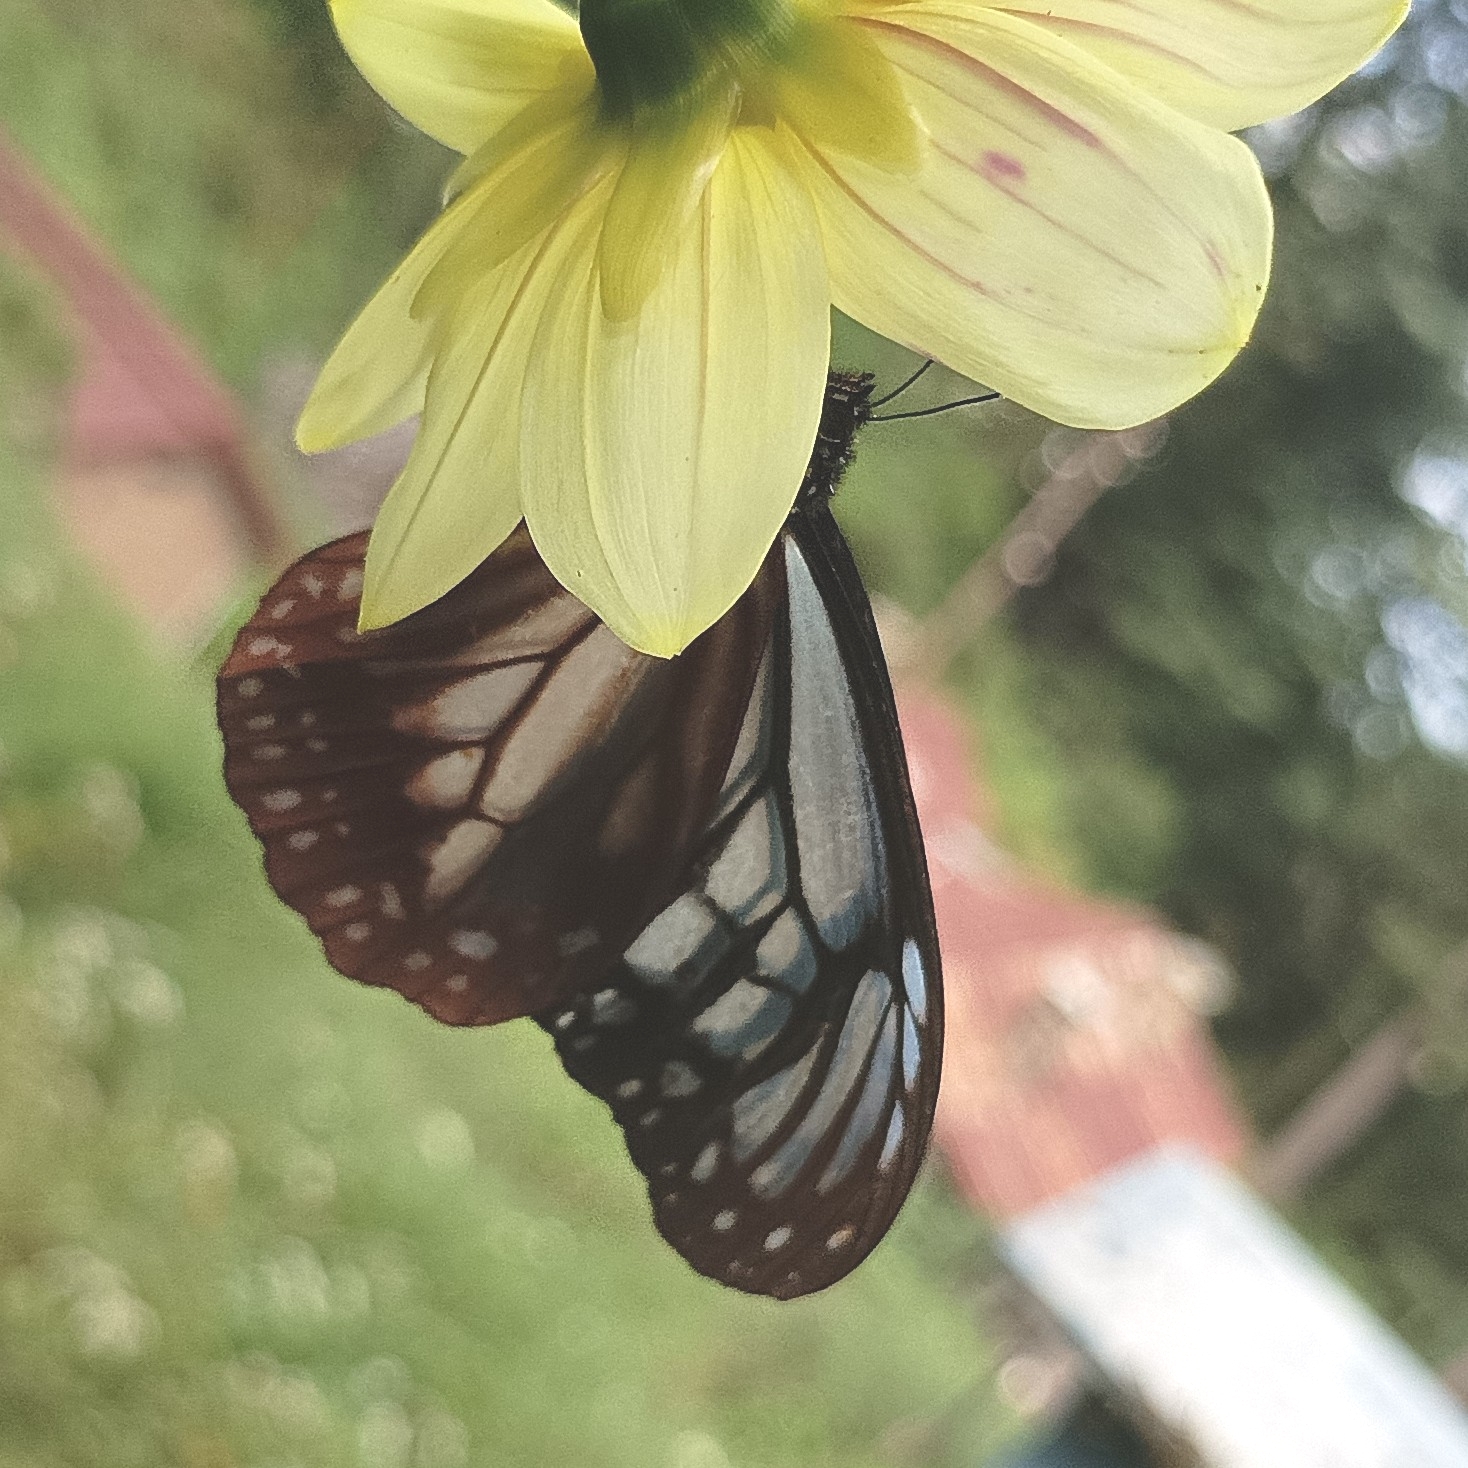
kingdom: Animalia
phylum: Arthropoda
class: Insecta
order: Lepidoptera
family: Nymphalidae
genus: Parantica
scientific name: Parantica sita
